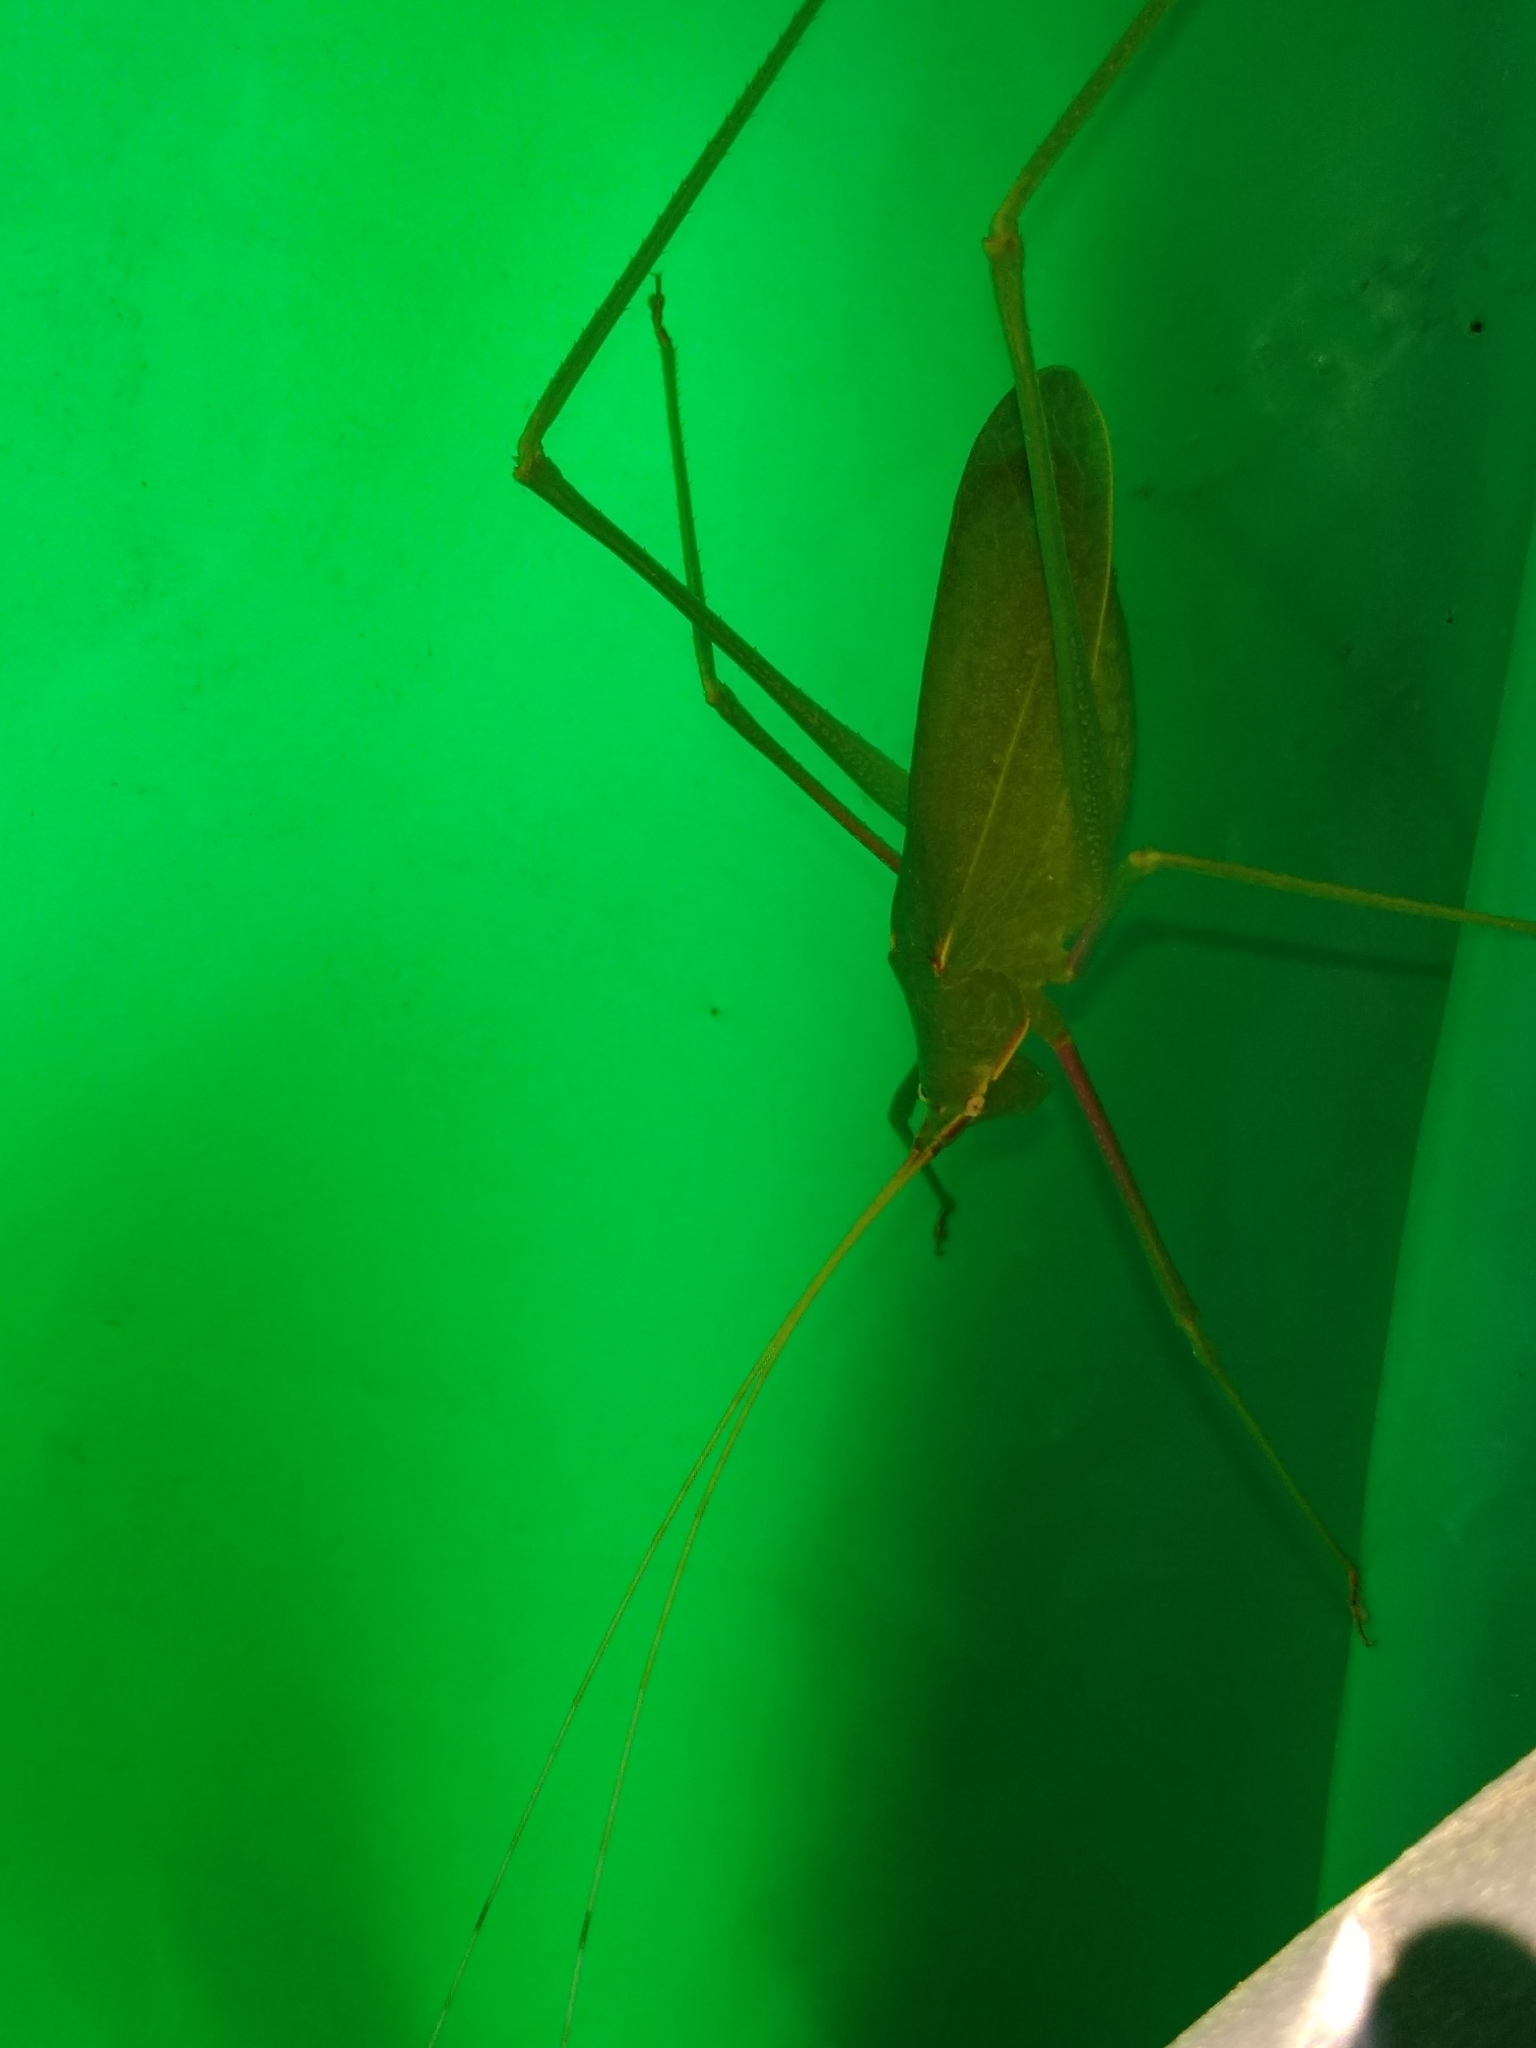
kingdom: Animalia
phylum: Arthropoda
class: Insecta
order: Orthoptera
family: Tettigoniidae
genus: Acrometopa
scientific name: Acrometopa servillea
